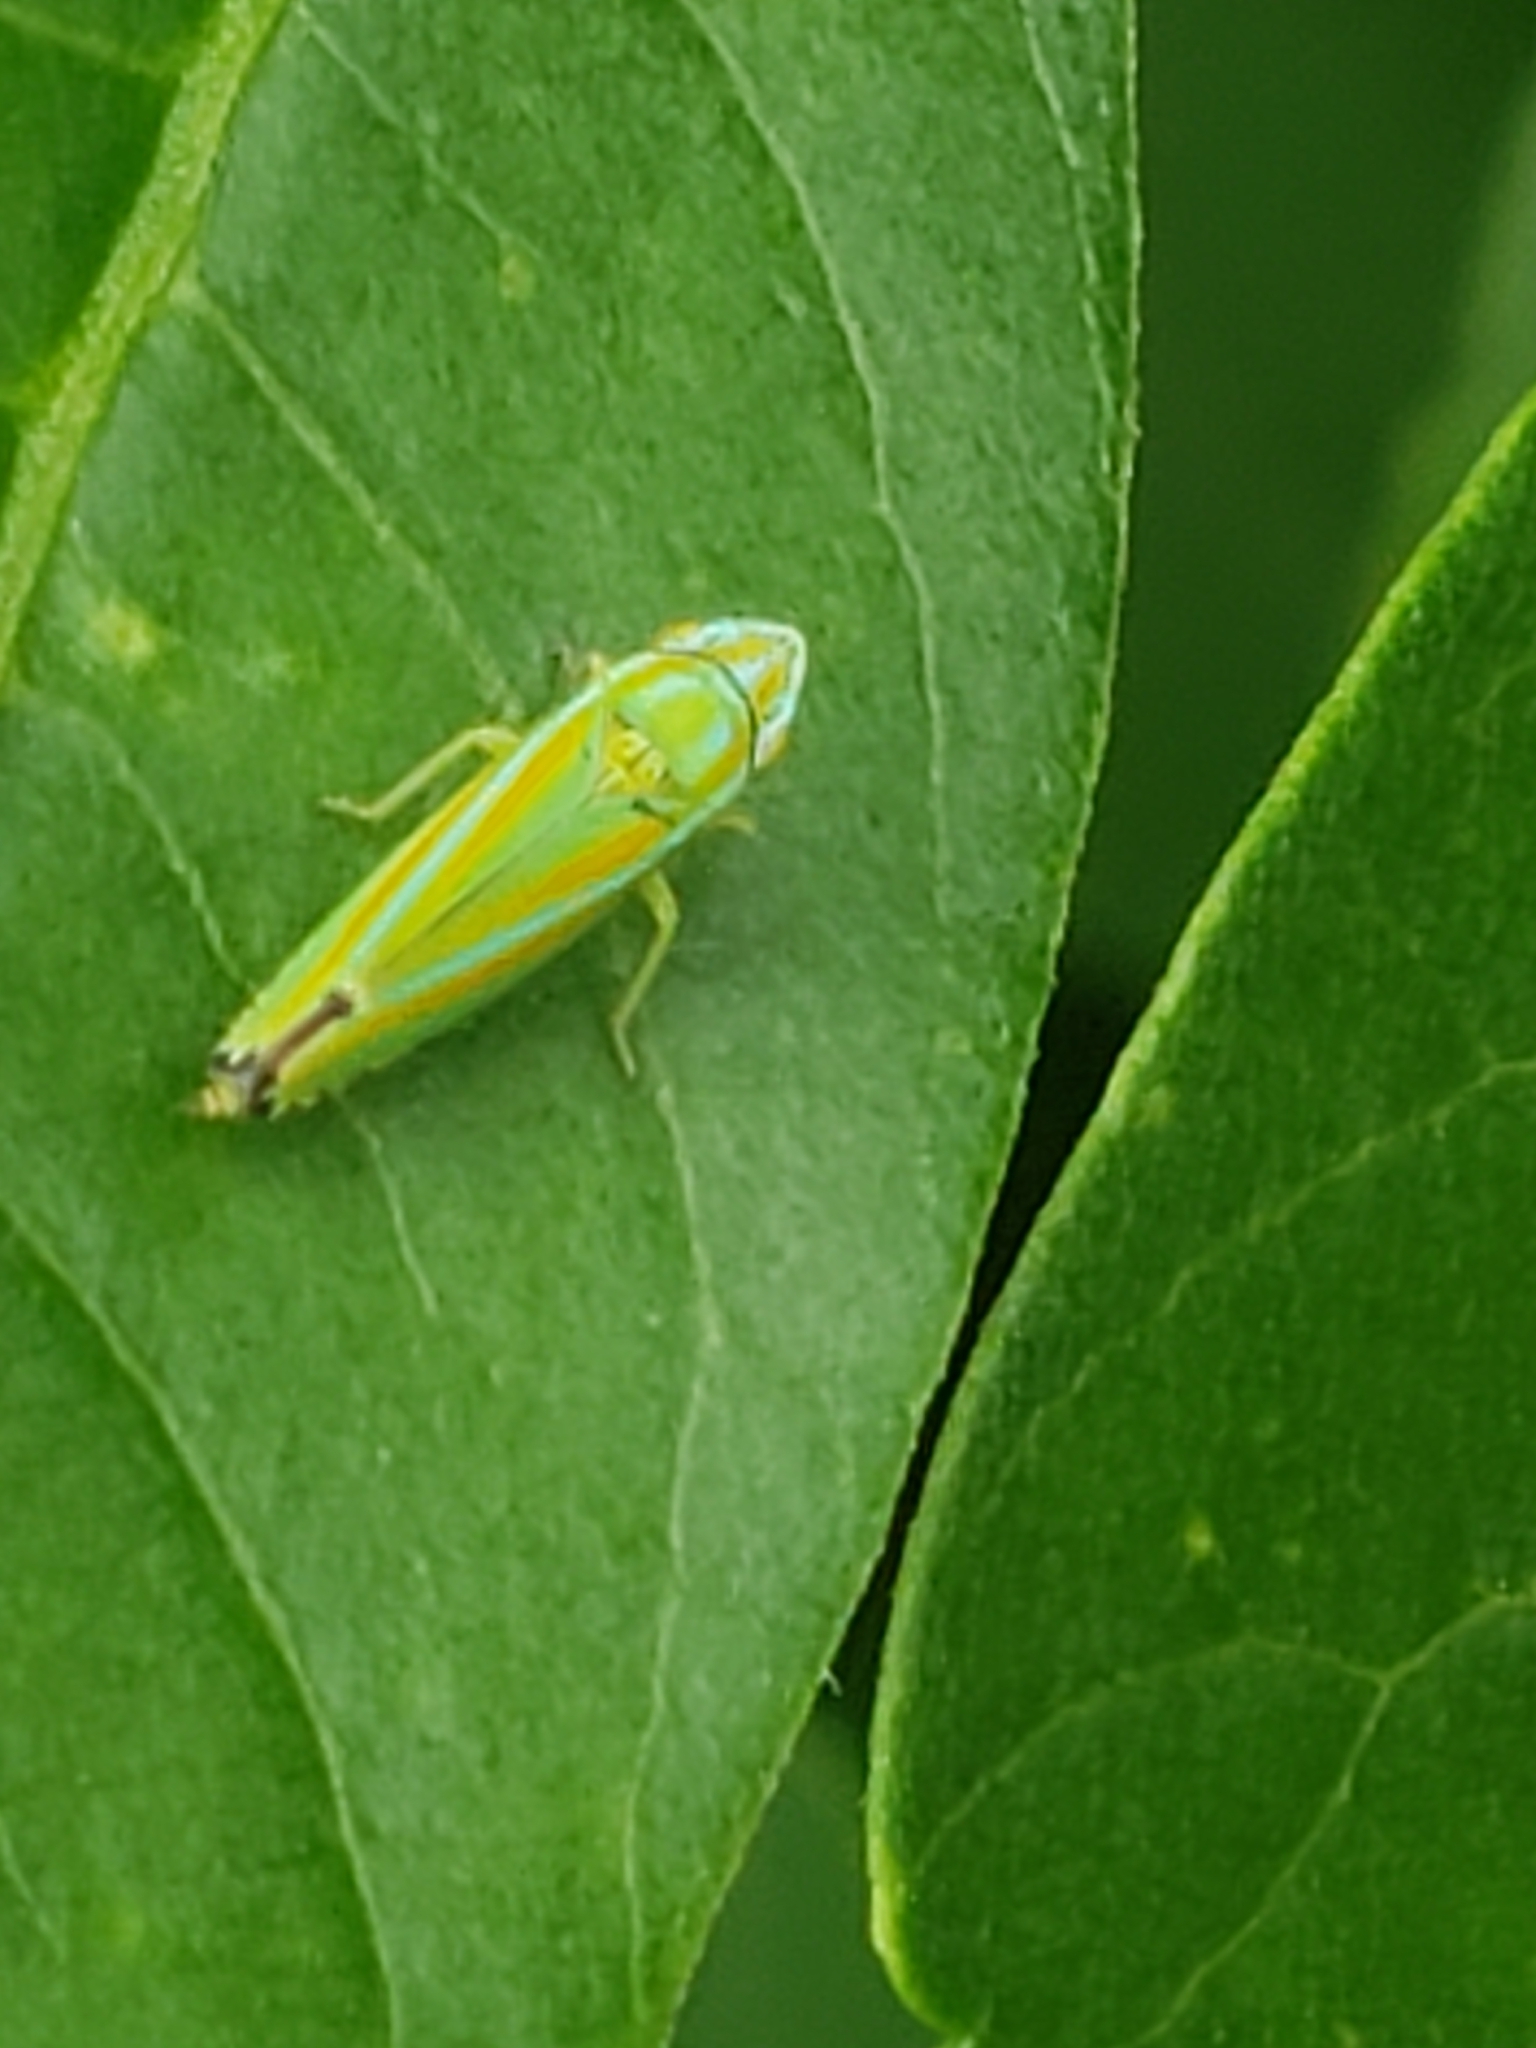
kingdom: Animalia
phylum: Arthropoda
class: Insecta
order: Hemiptera
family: Cicadellidae
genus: Graphocephala
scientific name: Graphocephala versuta
